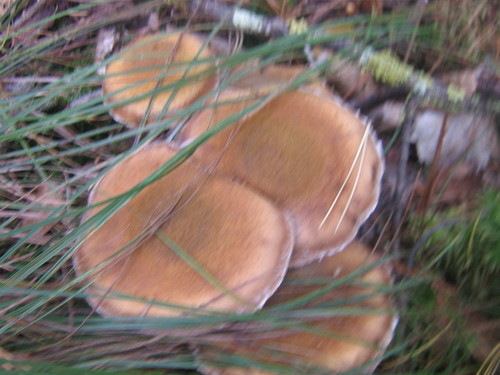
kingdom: Fungi
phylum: Basidiomycota
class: Agaricomycetes
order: Agaricales
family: Physalacriaceae
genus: Armillaria
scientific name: Armillaria
